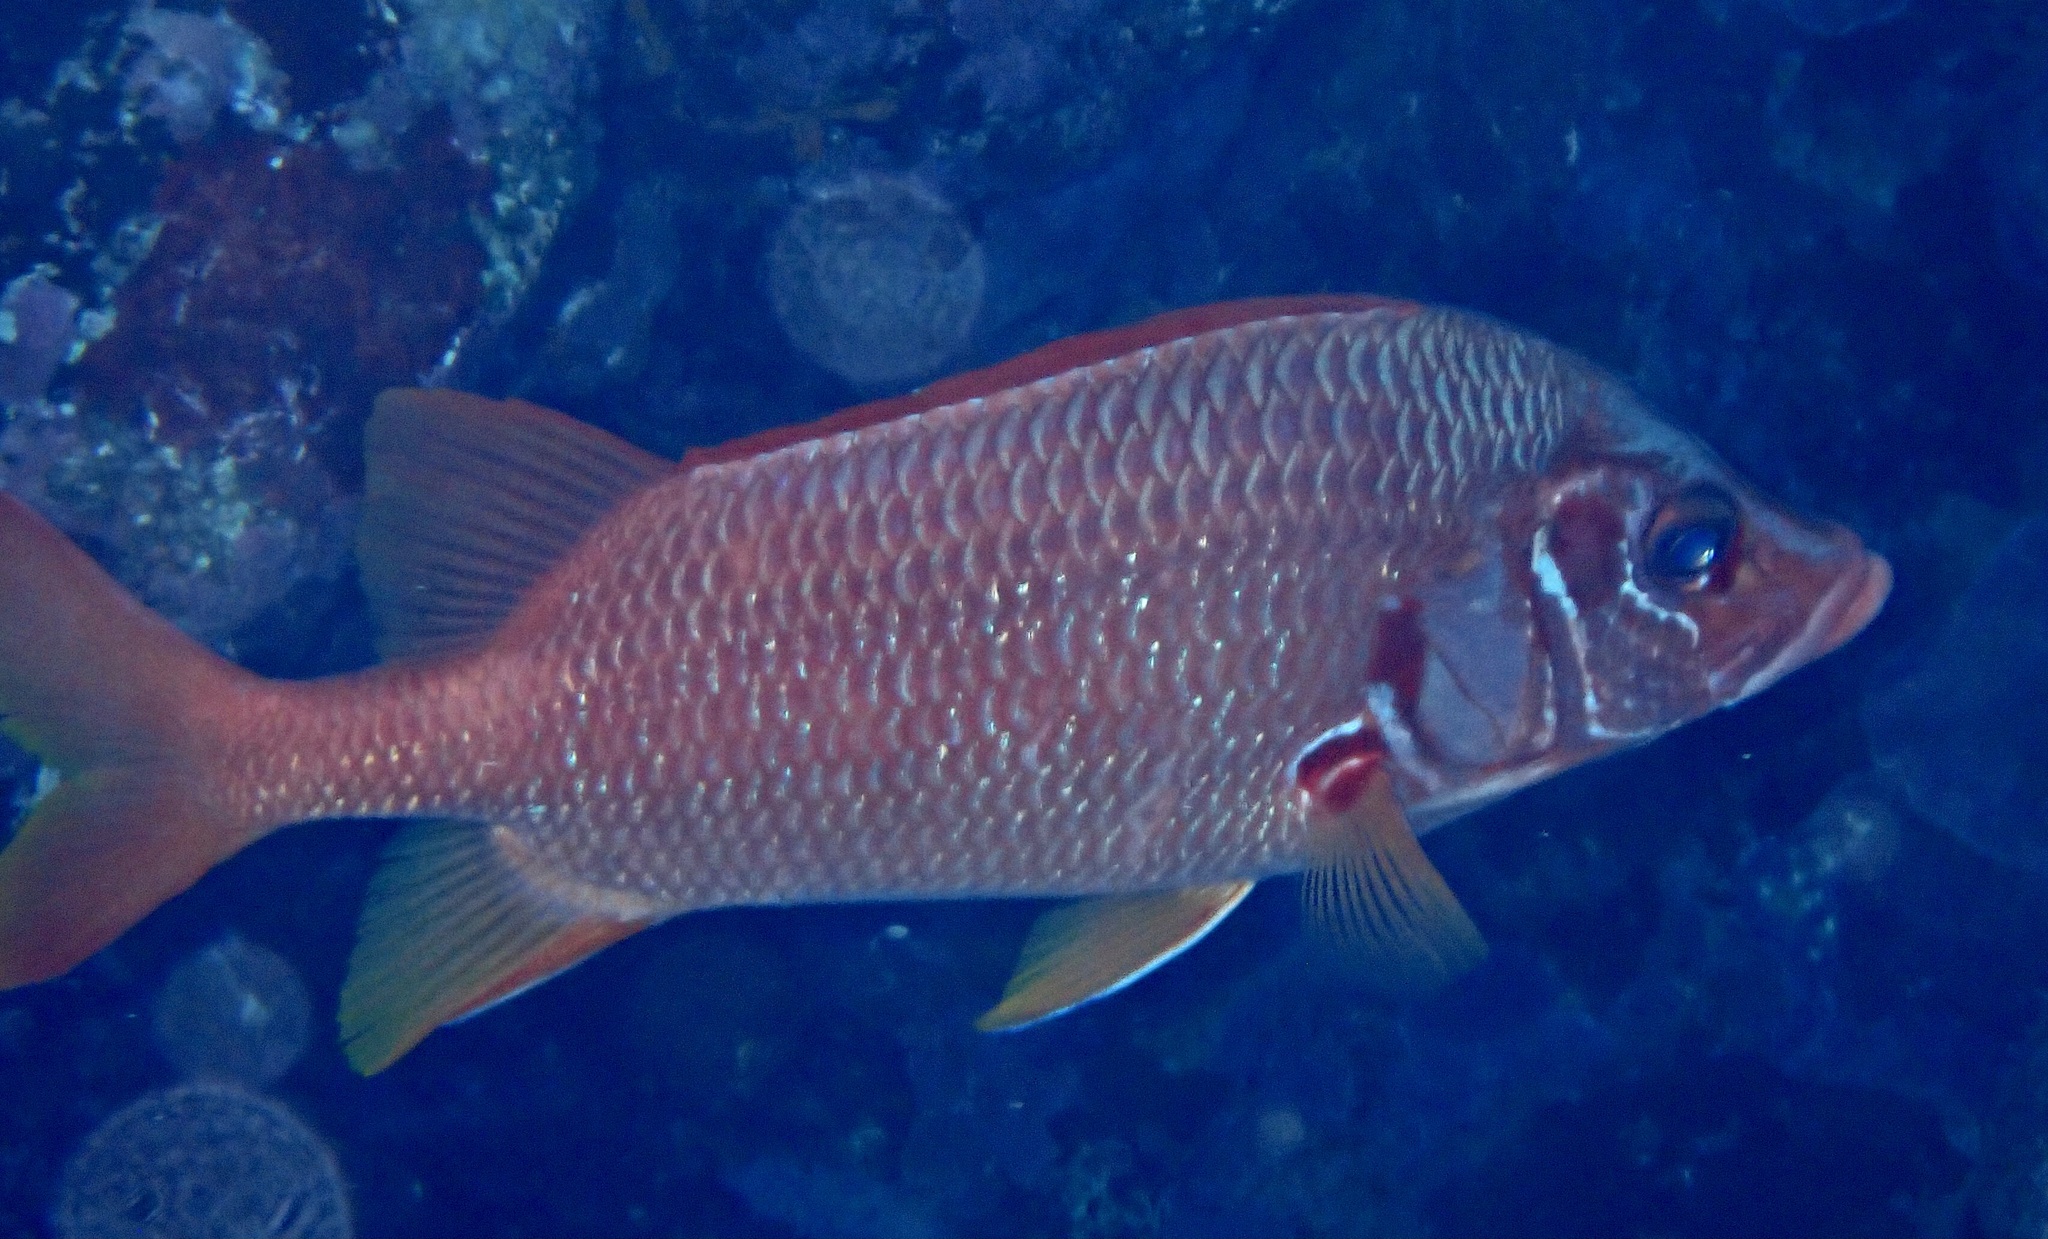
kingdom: Animalia
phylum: Chordata
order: Beryciformes
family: Holocentridae
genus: Sargocentron
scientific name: Sargocentron spiniferum
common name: Giant squirrelfish
